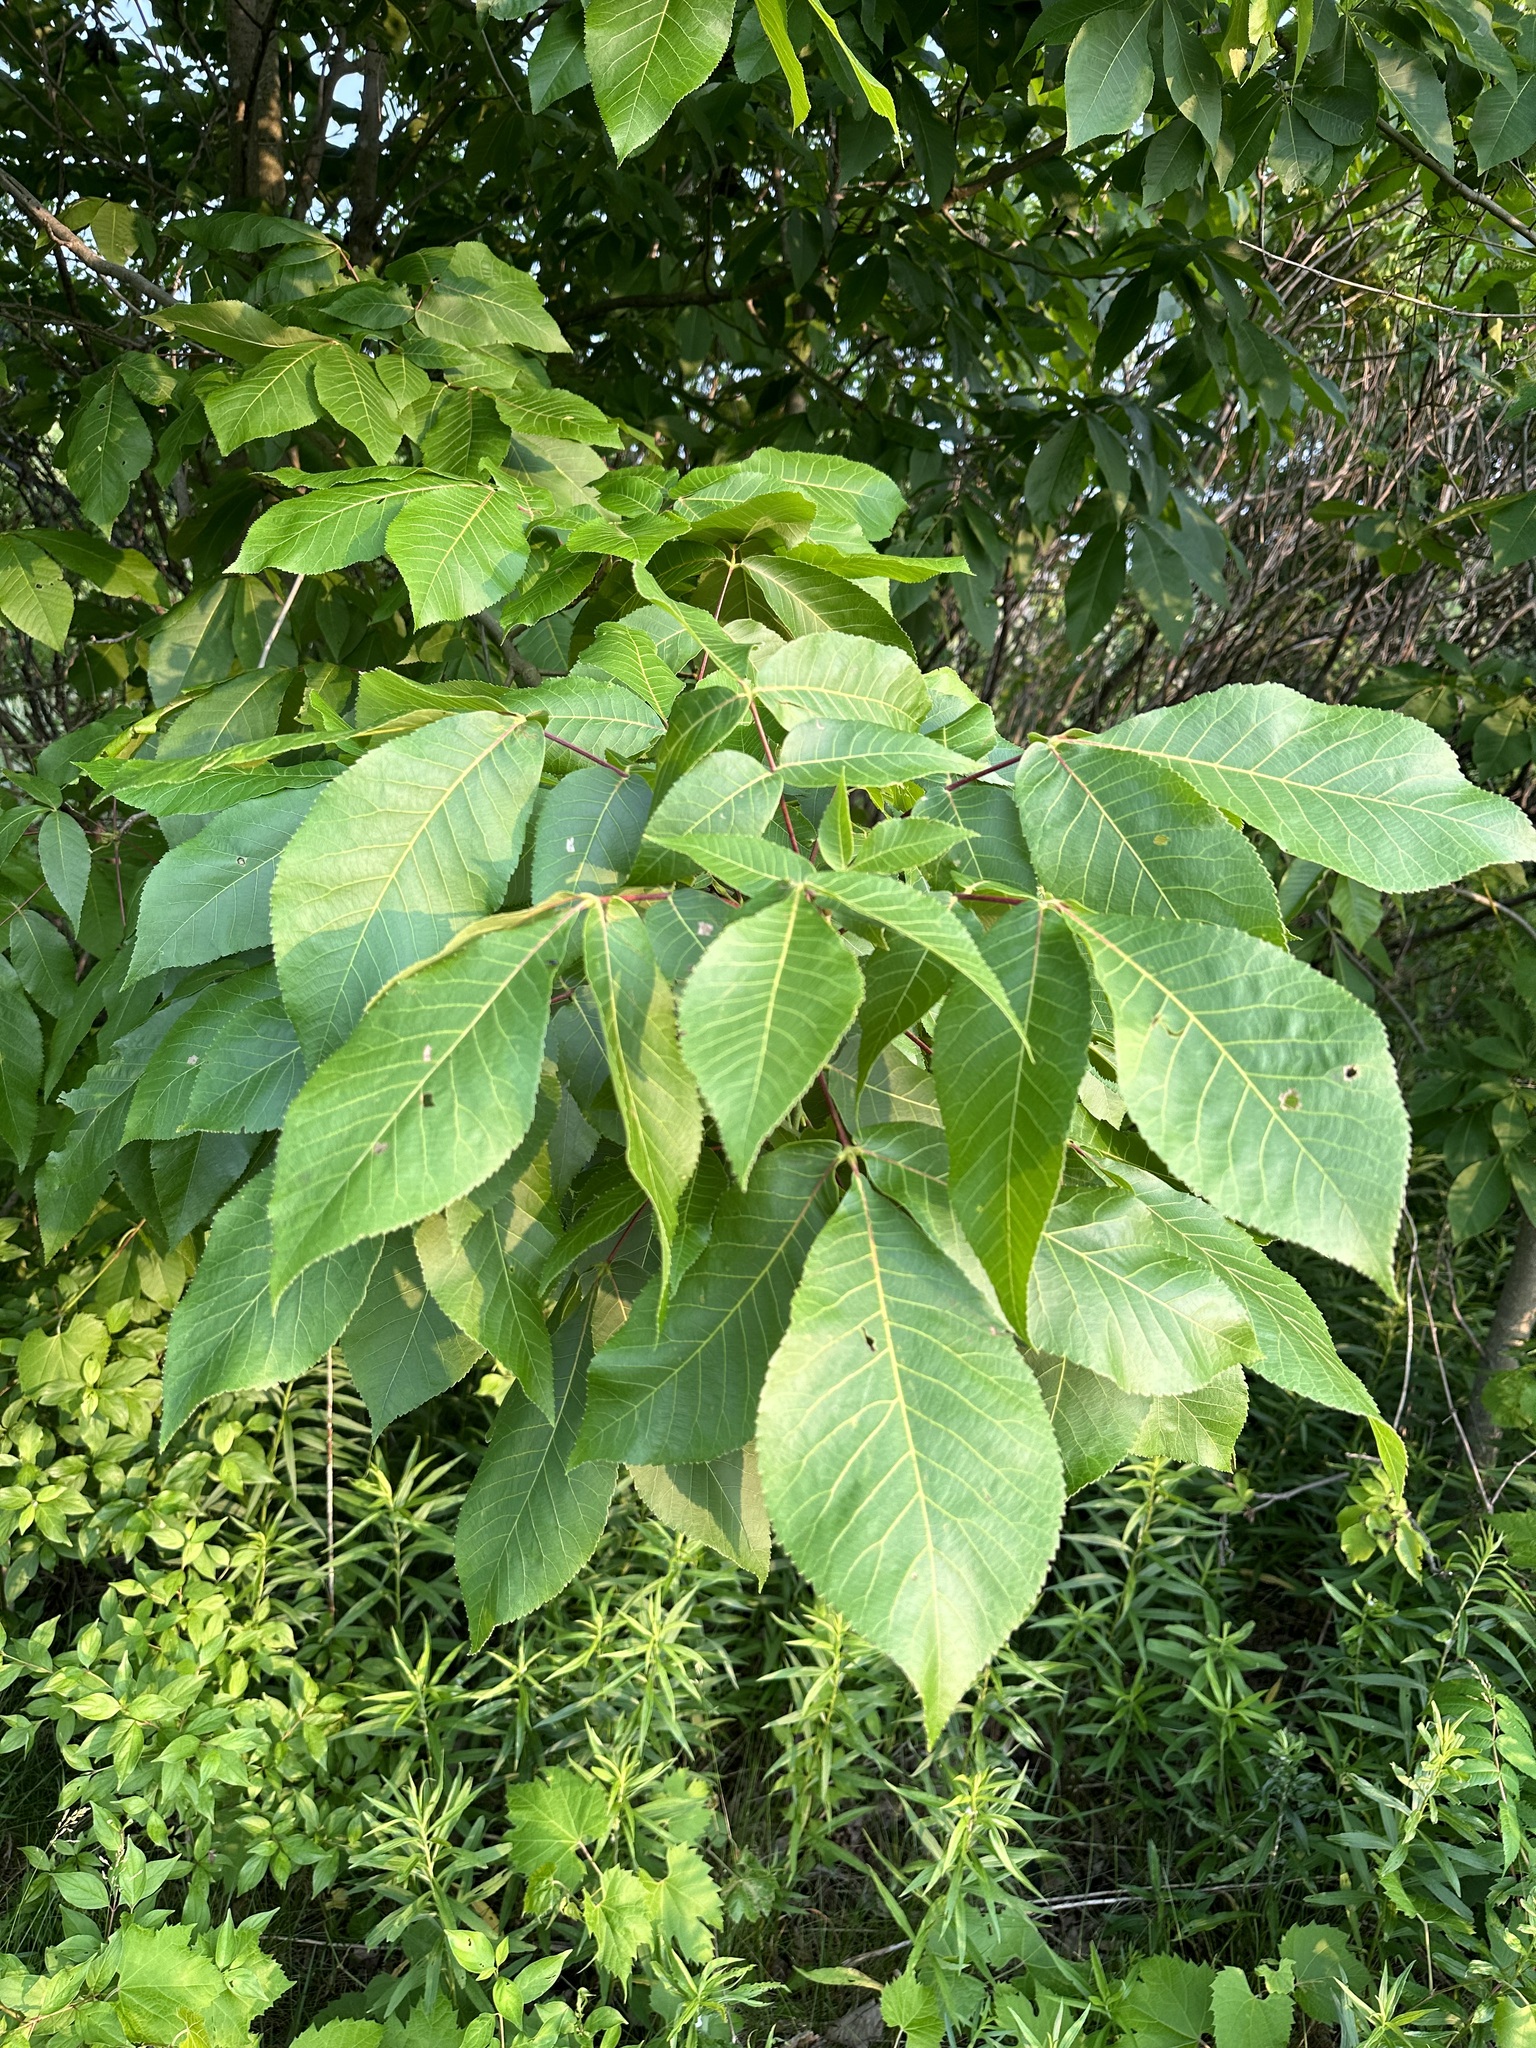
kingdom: Plantae
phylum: Tracheophyta
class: Magnoliopsida
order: Fagales
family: Juglandaceae
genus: Carya
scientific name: Carya ovata
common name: Shagbark hickory
